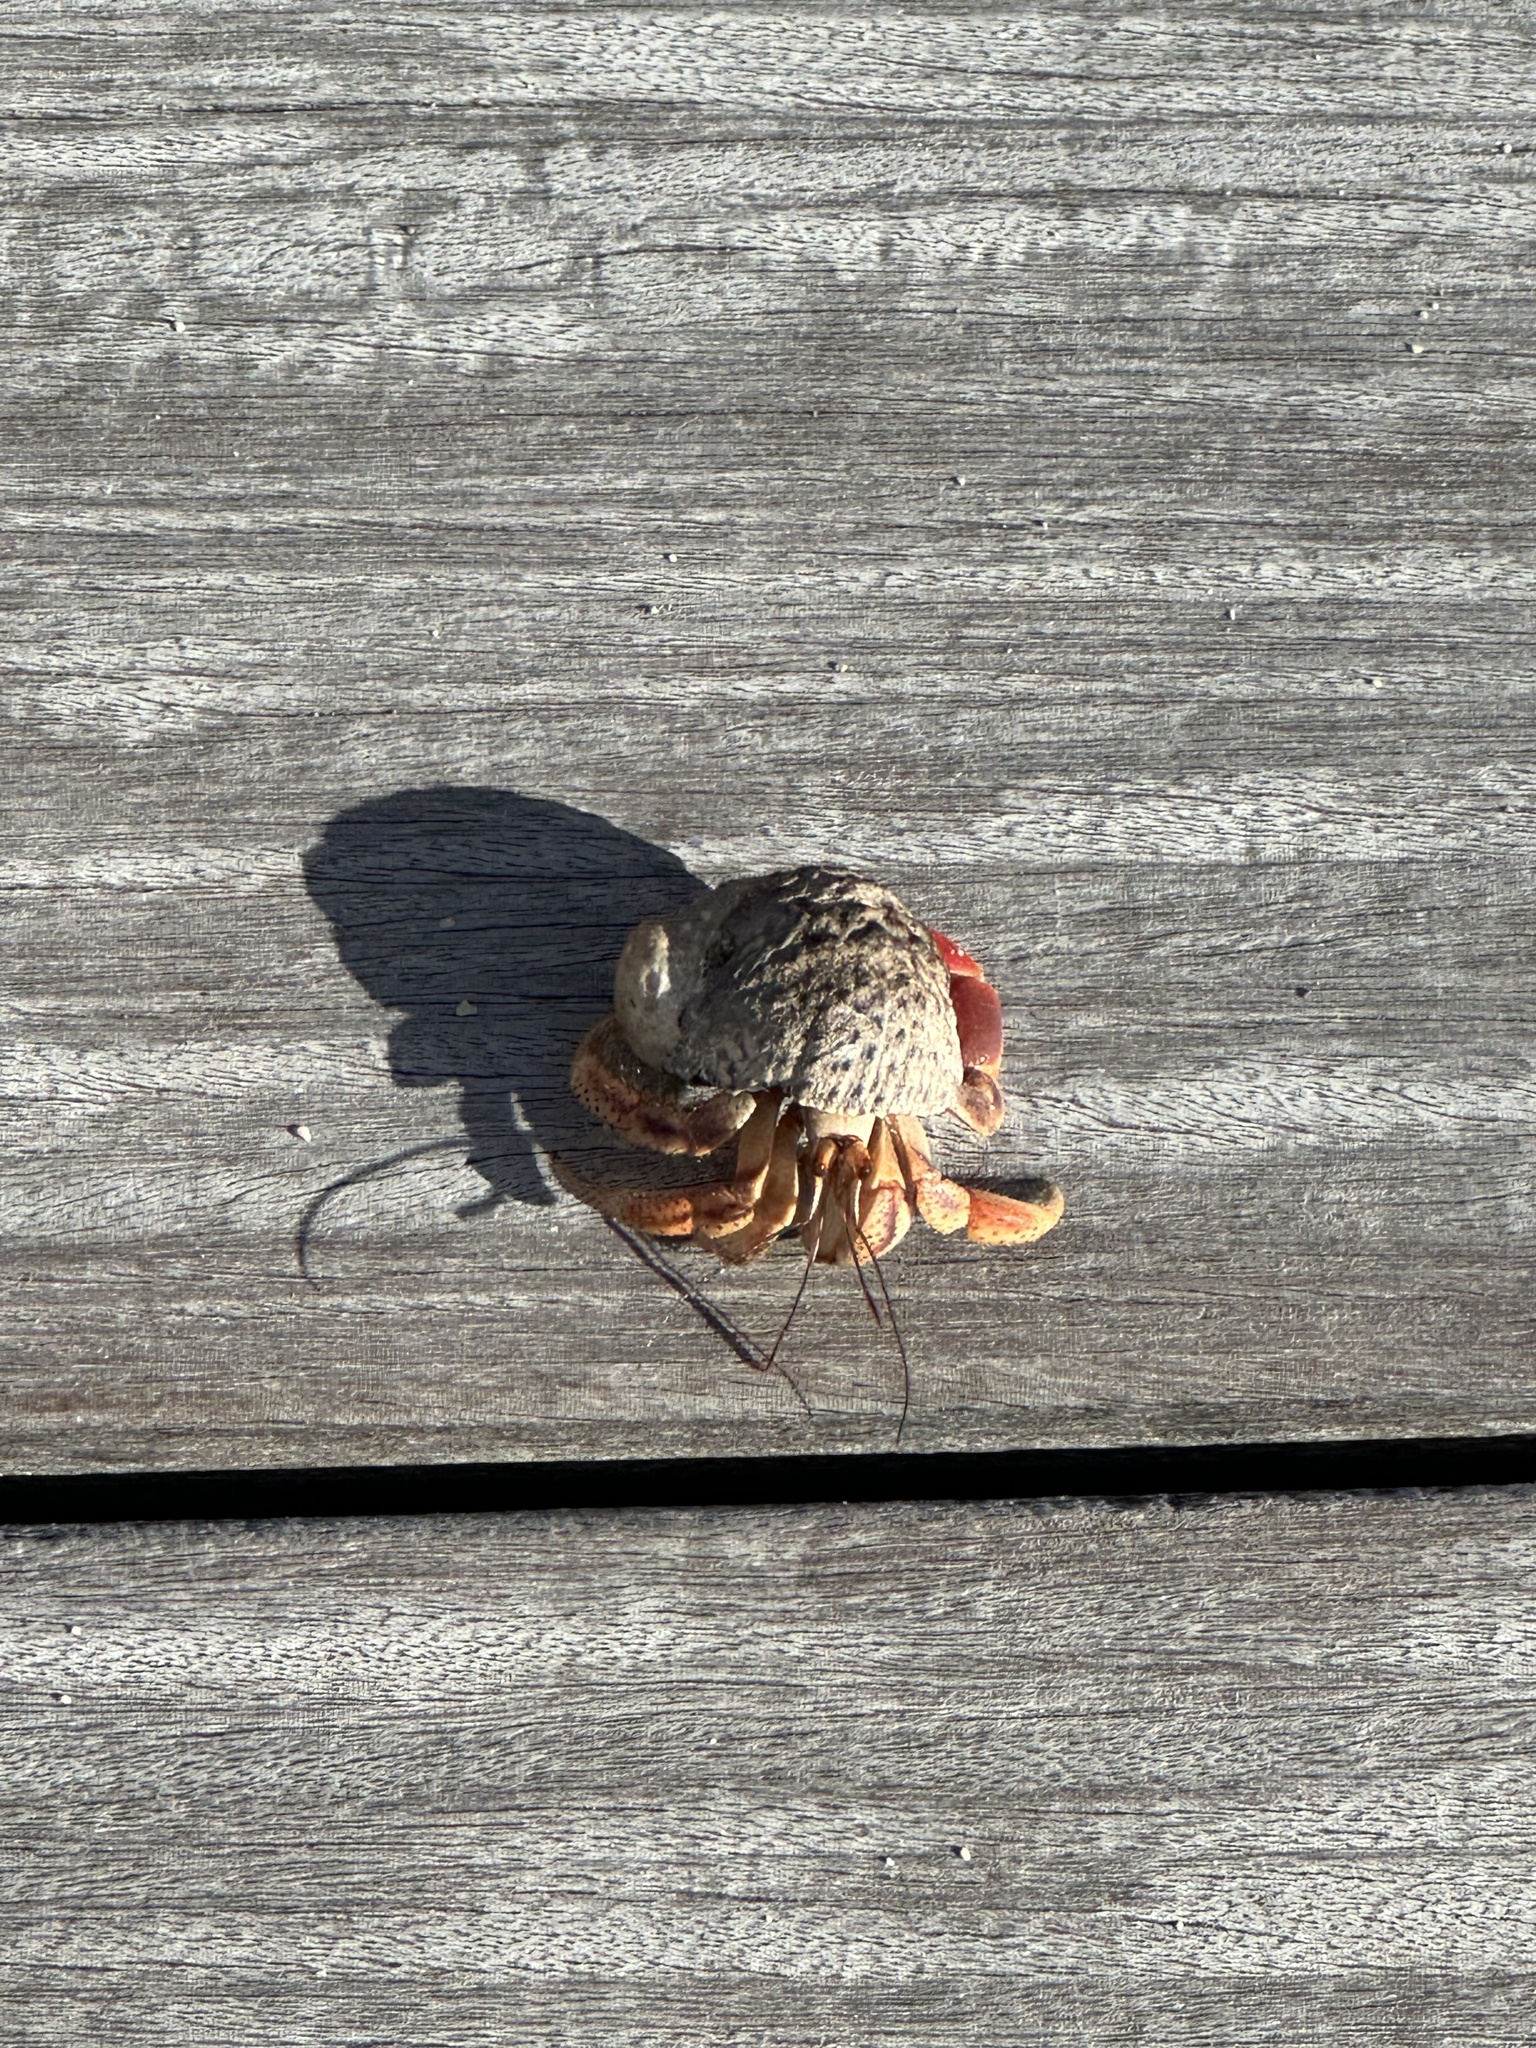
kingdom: Animalia
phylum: Arthropoda
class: Malacostraca
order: Decapoda
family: Coenobitidae
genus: Coenobita
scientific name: Coenobita clypeatus
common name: Caribbean hermit crab
